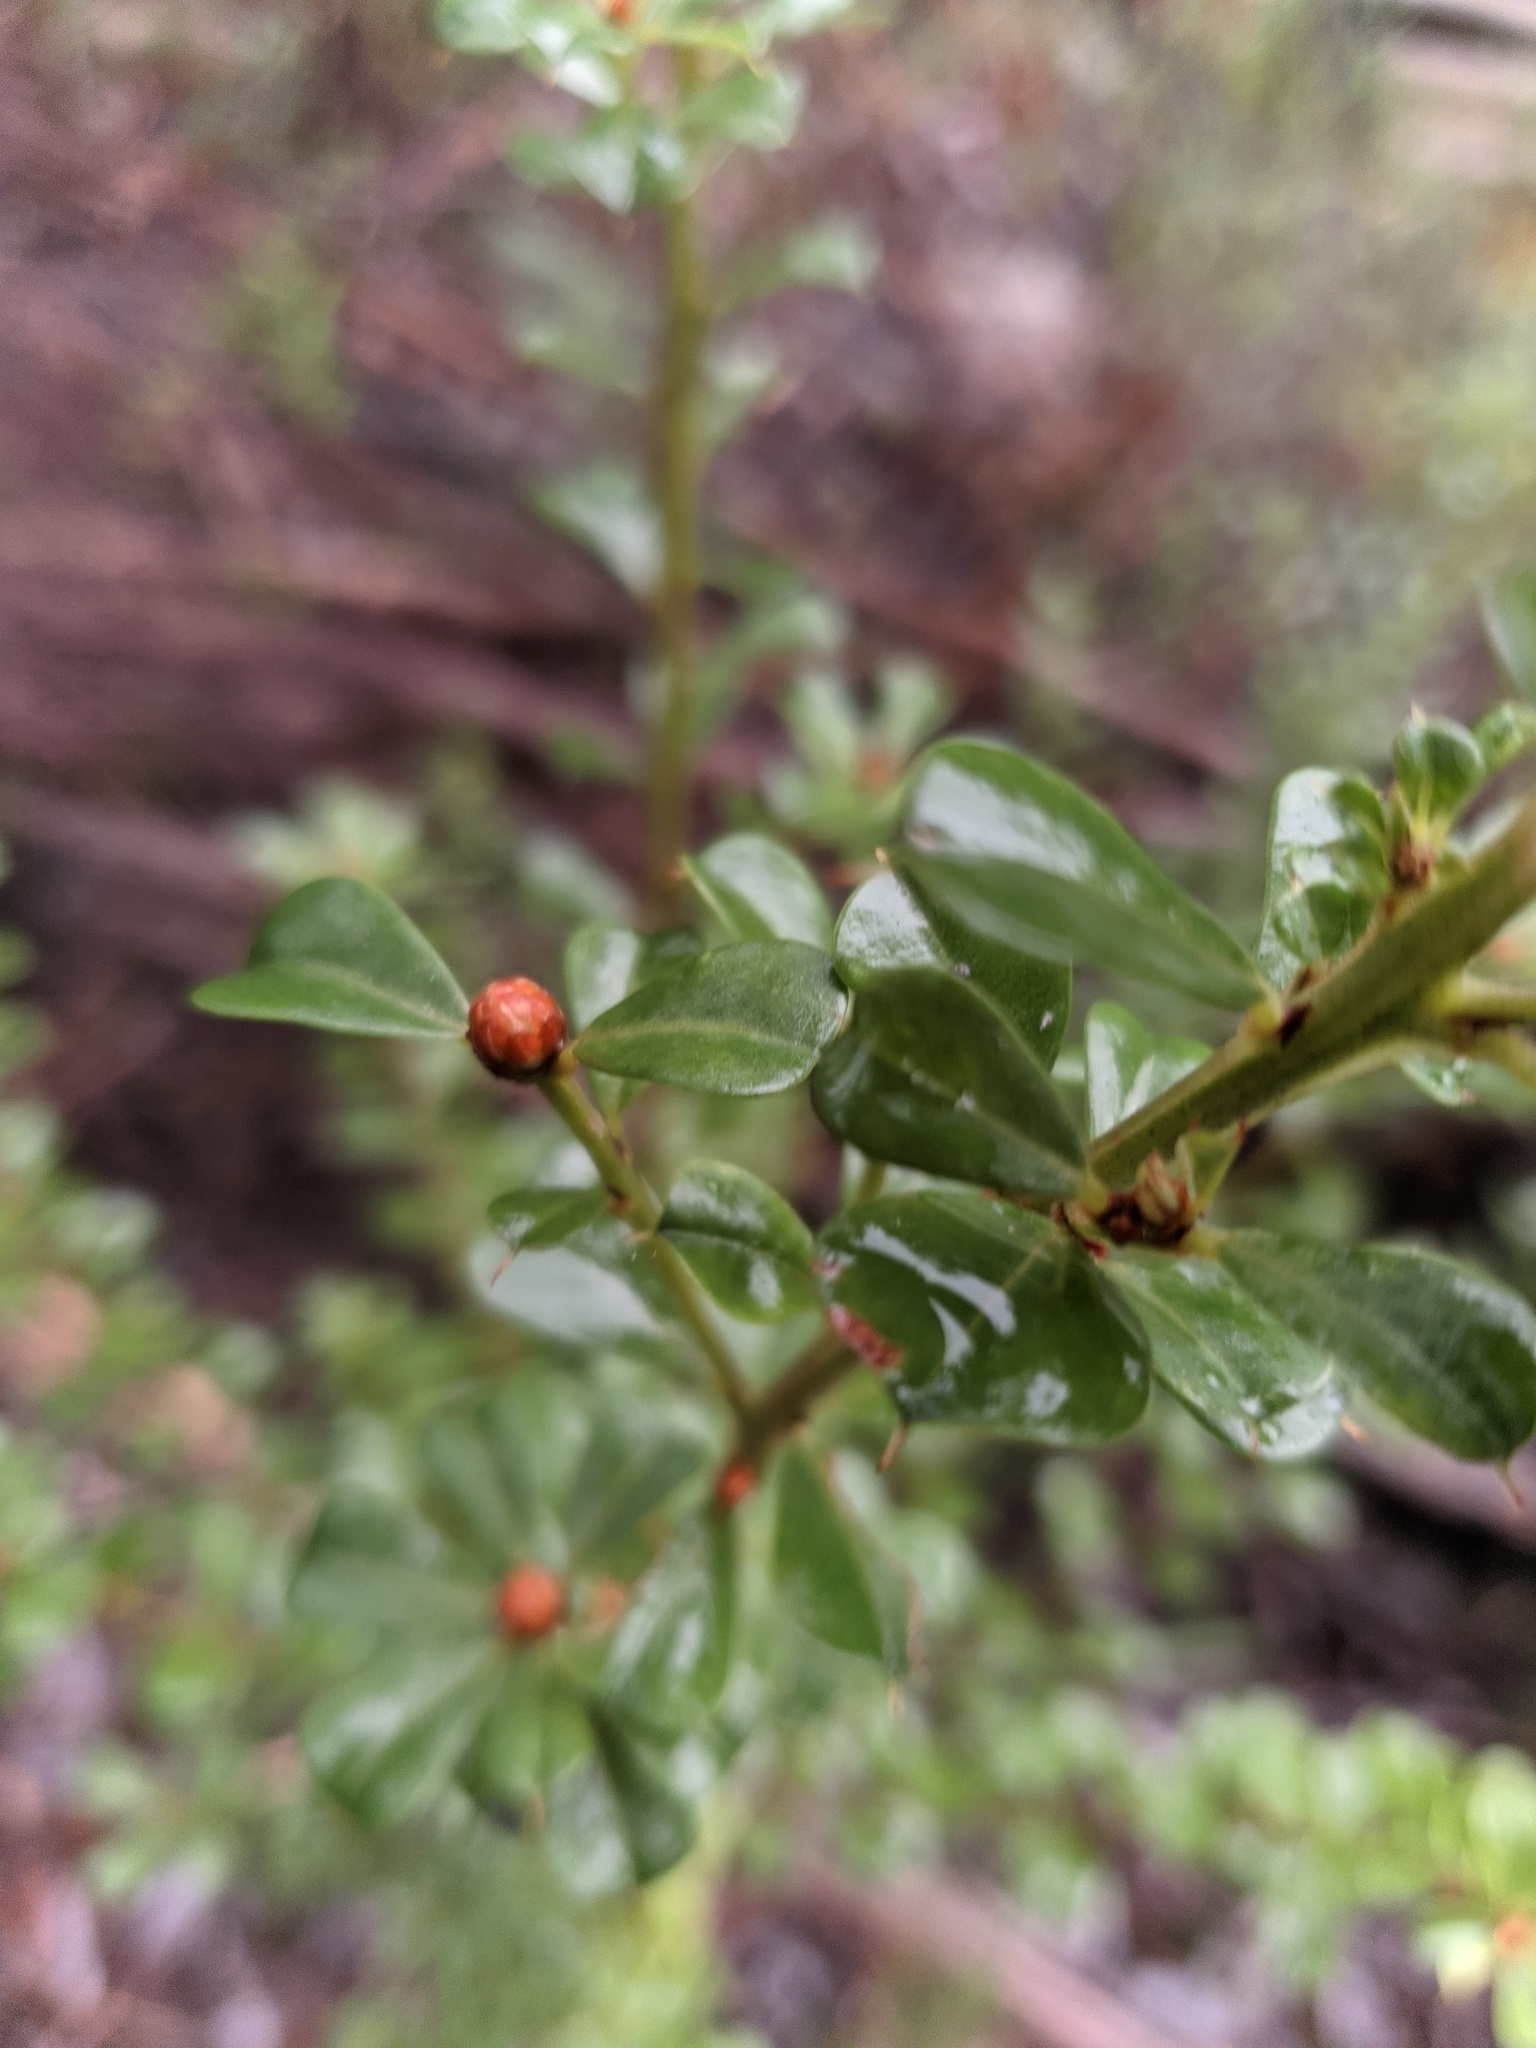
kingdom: Plantae
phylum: Tracheophyta
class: Magnoliopsida
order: Fabales
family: Fabaceae
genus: Pultenaea
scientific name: Pultenaea daphnoides
